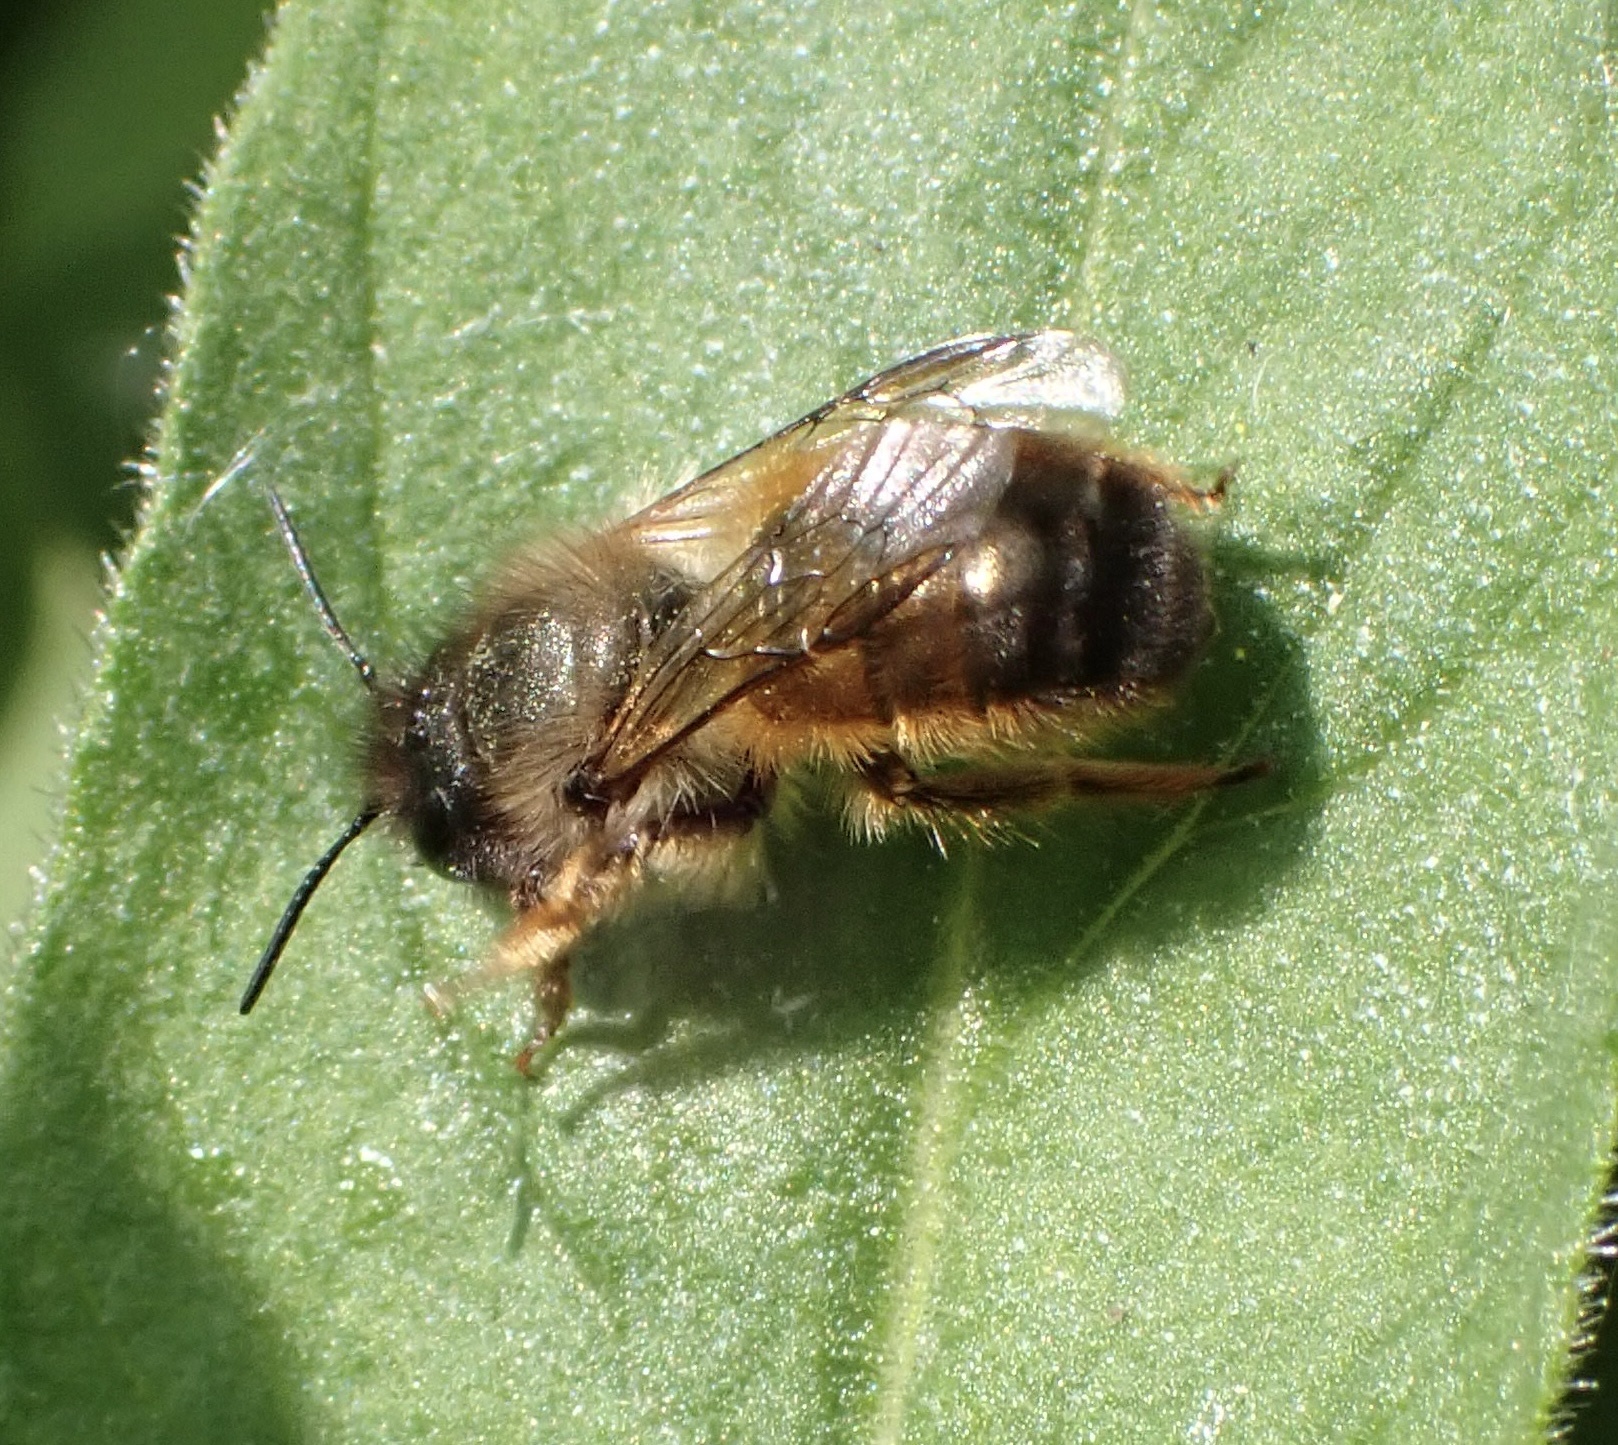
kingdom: Animalia
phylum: Arthropoda
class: Insecta
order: Hymenoptera
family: Megachilidae
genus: Osmia
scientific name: Osmia bicornis
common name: Red mason bee
